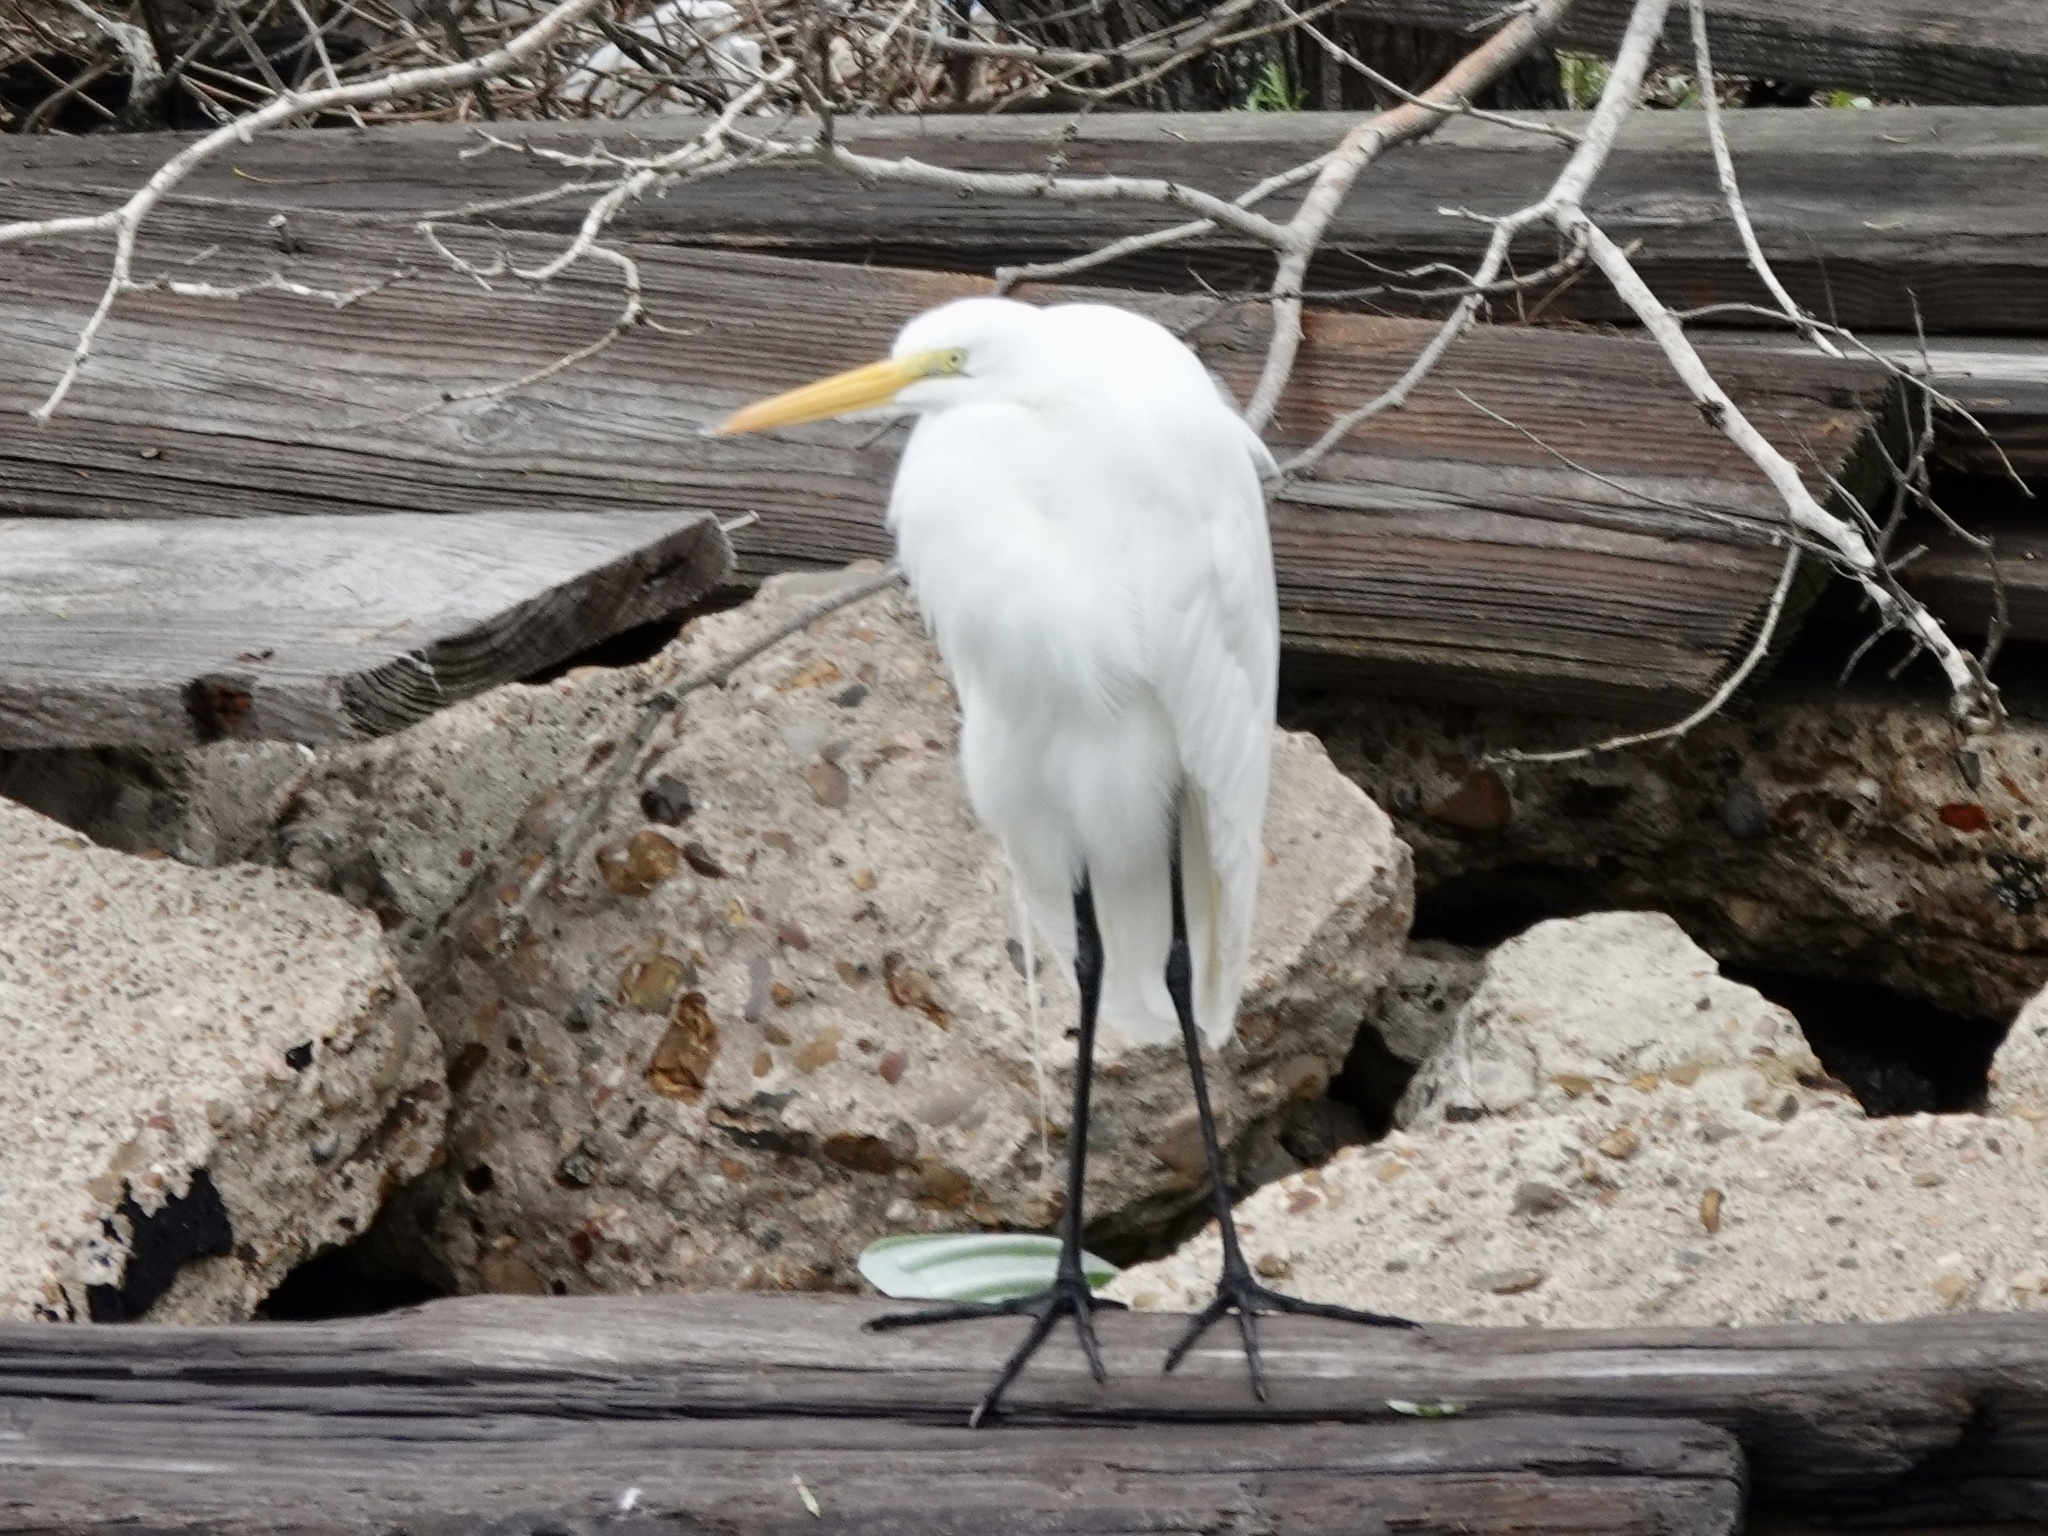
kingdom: Animalia
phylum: Chordata
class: Aves
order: Pelecaniformes
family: Ardeidae
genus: Ardea
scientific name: Ardea alba
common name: Great egret
